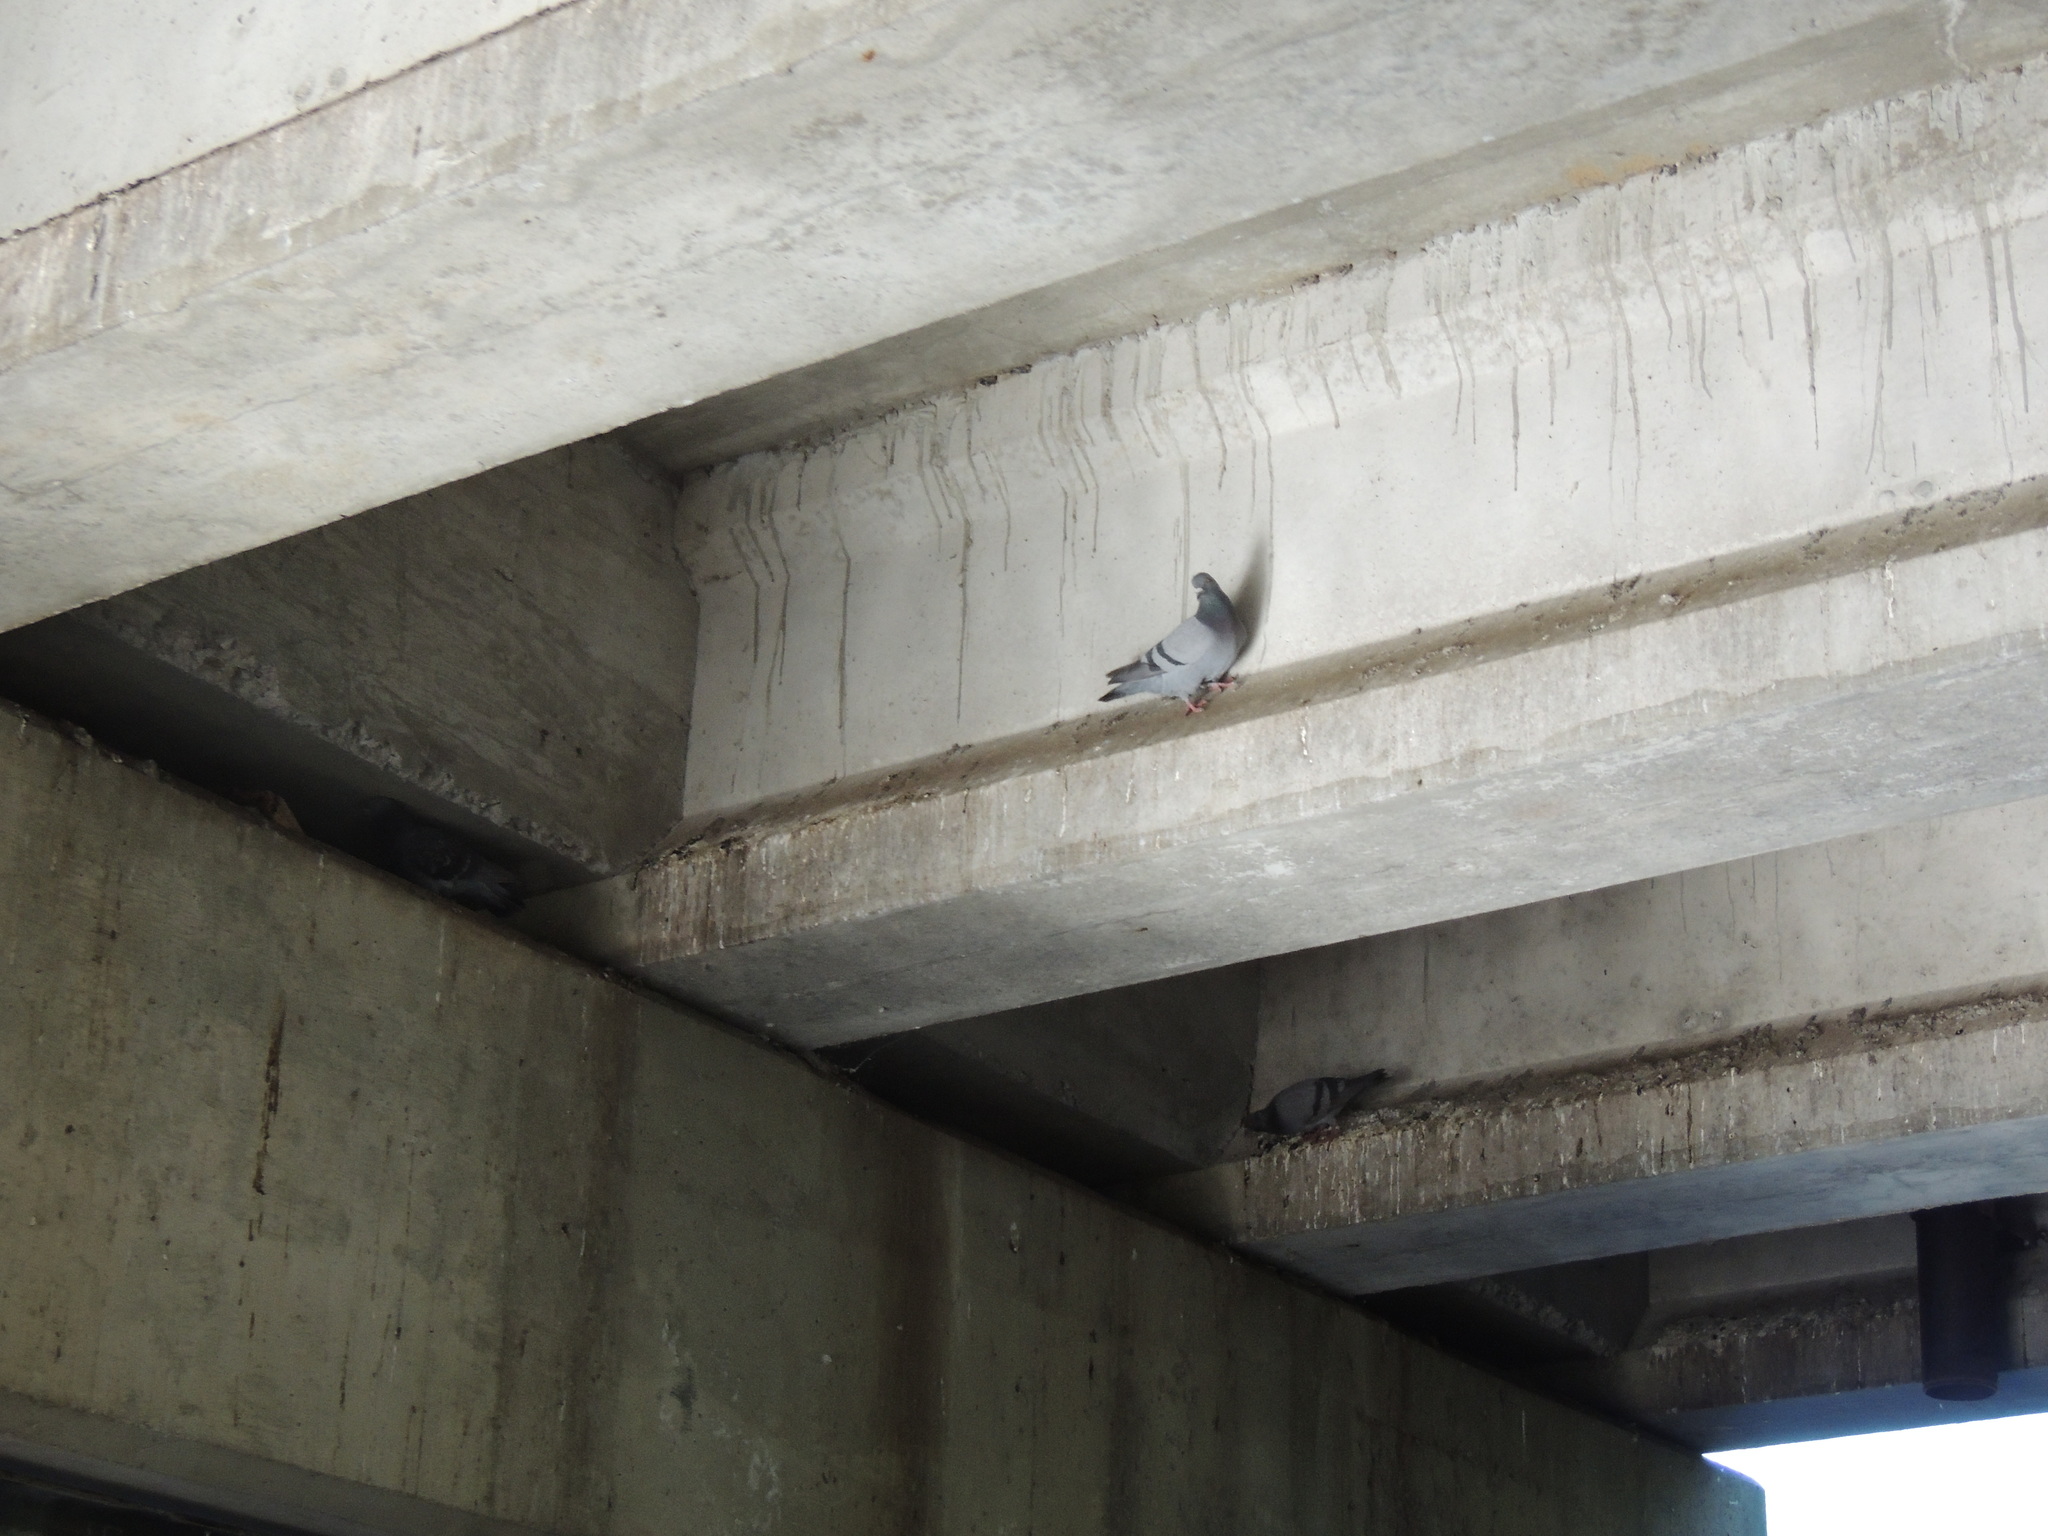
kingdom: Animalia
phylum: Chordata
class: Aves
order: Columbiformes
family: Columbidae
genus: Columba
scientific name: Columba livia
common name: Rock pigeon
